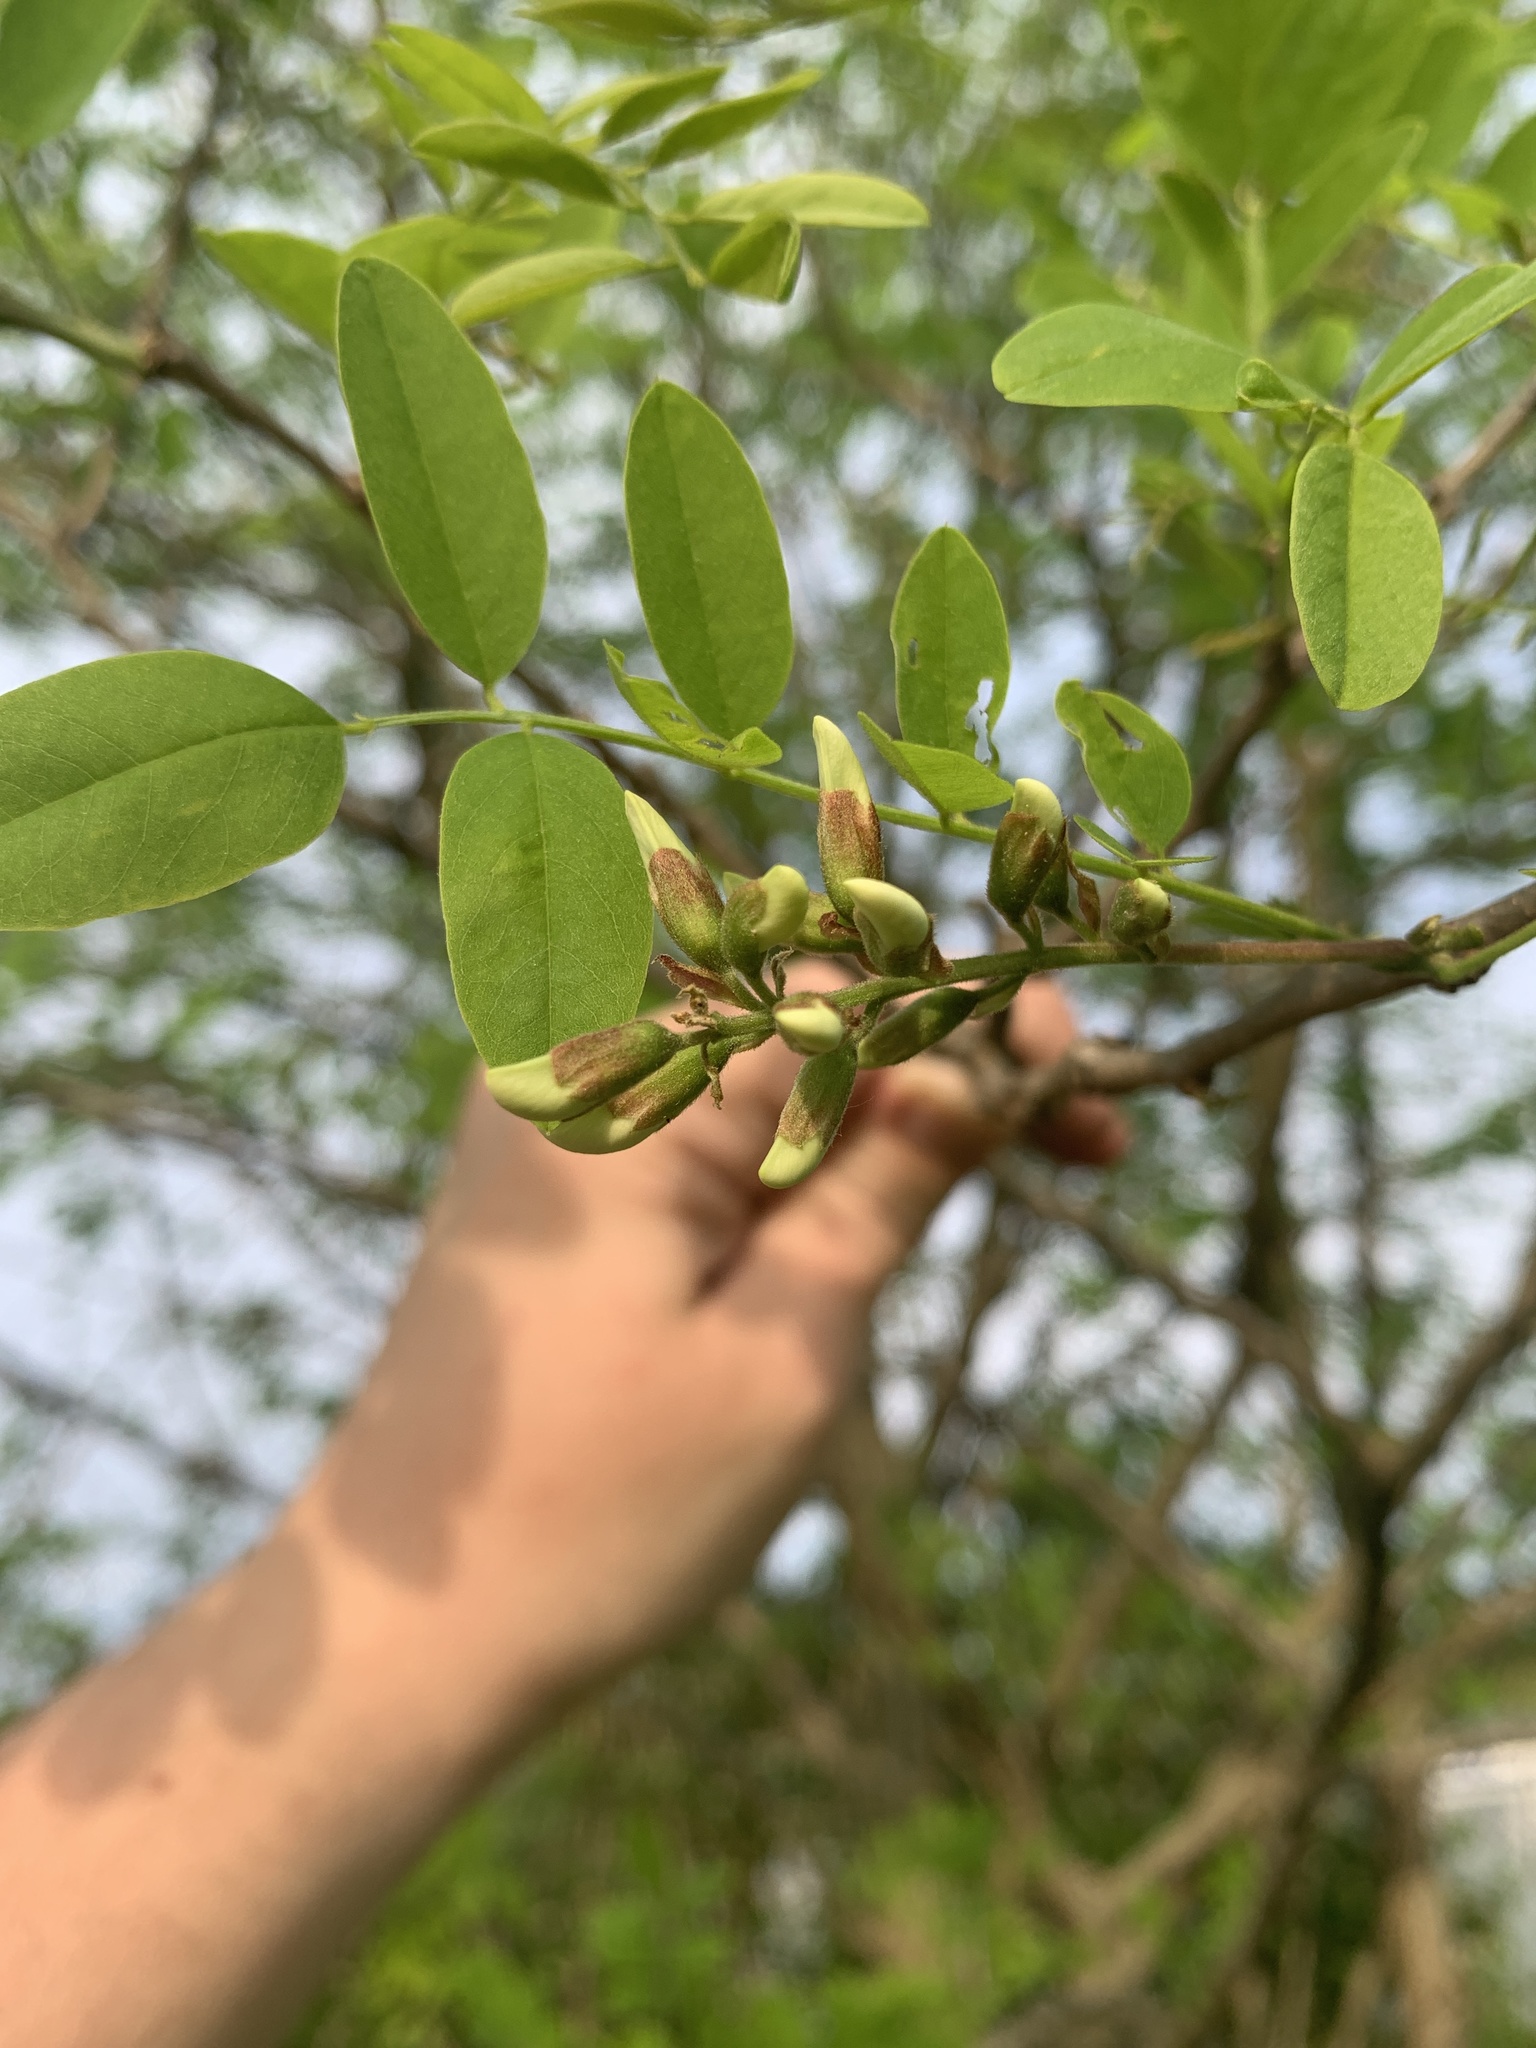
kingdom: Plantae
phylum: Tracheophyta
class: Magnoliopsida
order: Fabales
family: Fabaceae
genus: Robinia
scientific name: Robinia pseudoacacia
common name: Black locust
